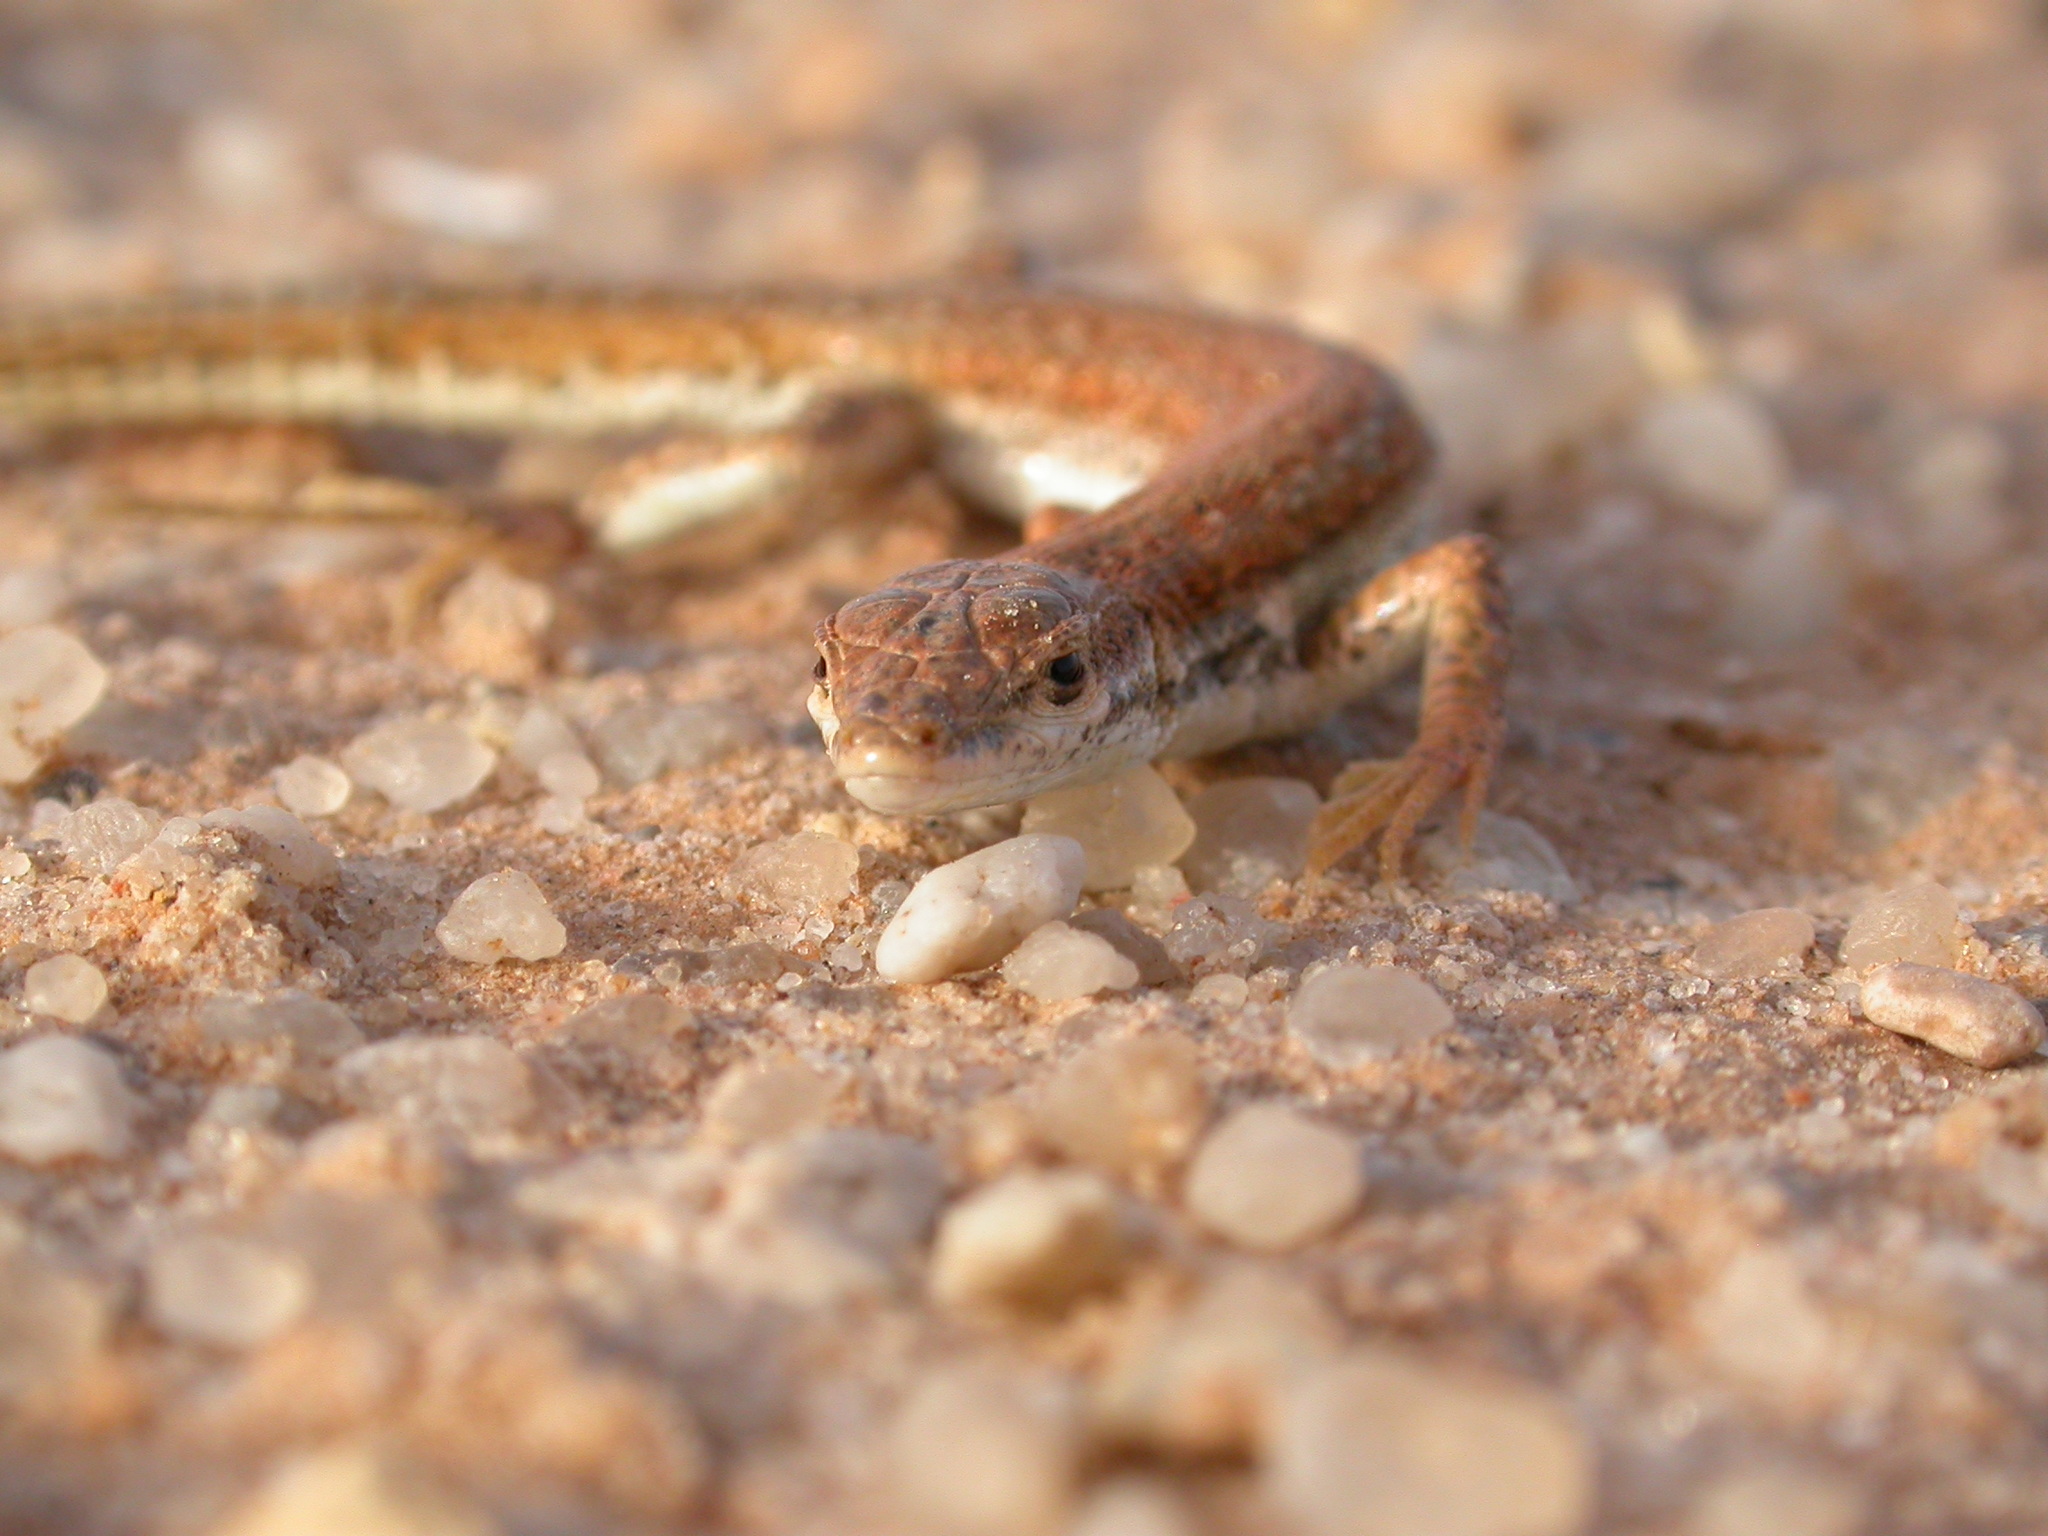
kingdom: Animalia
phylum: Chordata
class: Squamata
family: Lacertidae
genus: Mesalina
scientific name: Mesalina simoni
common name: Simon's desert racer
